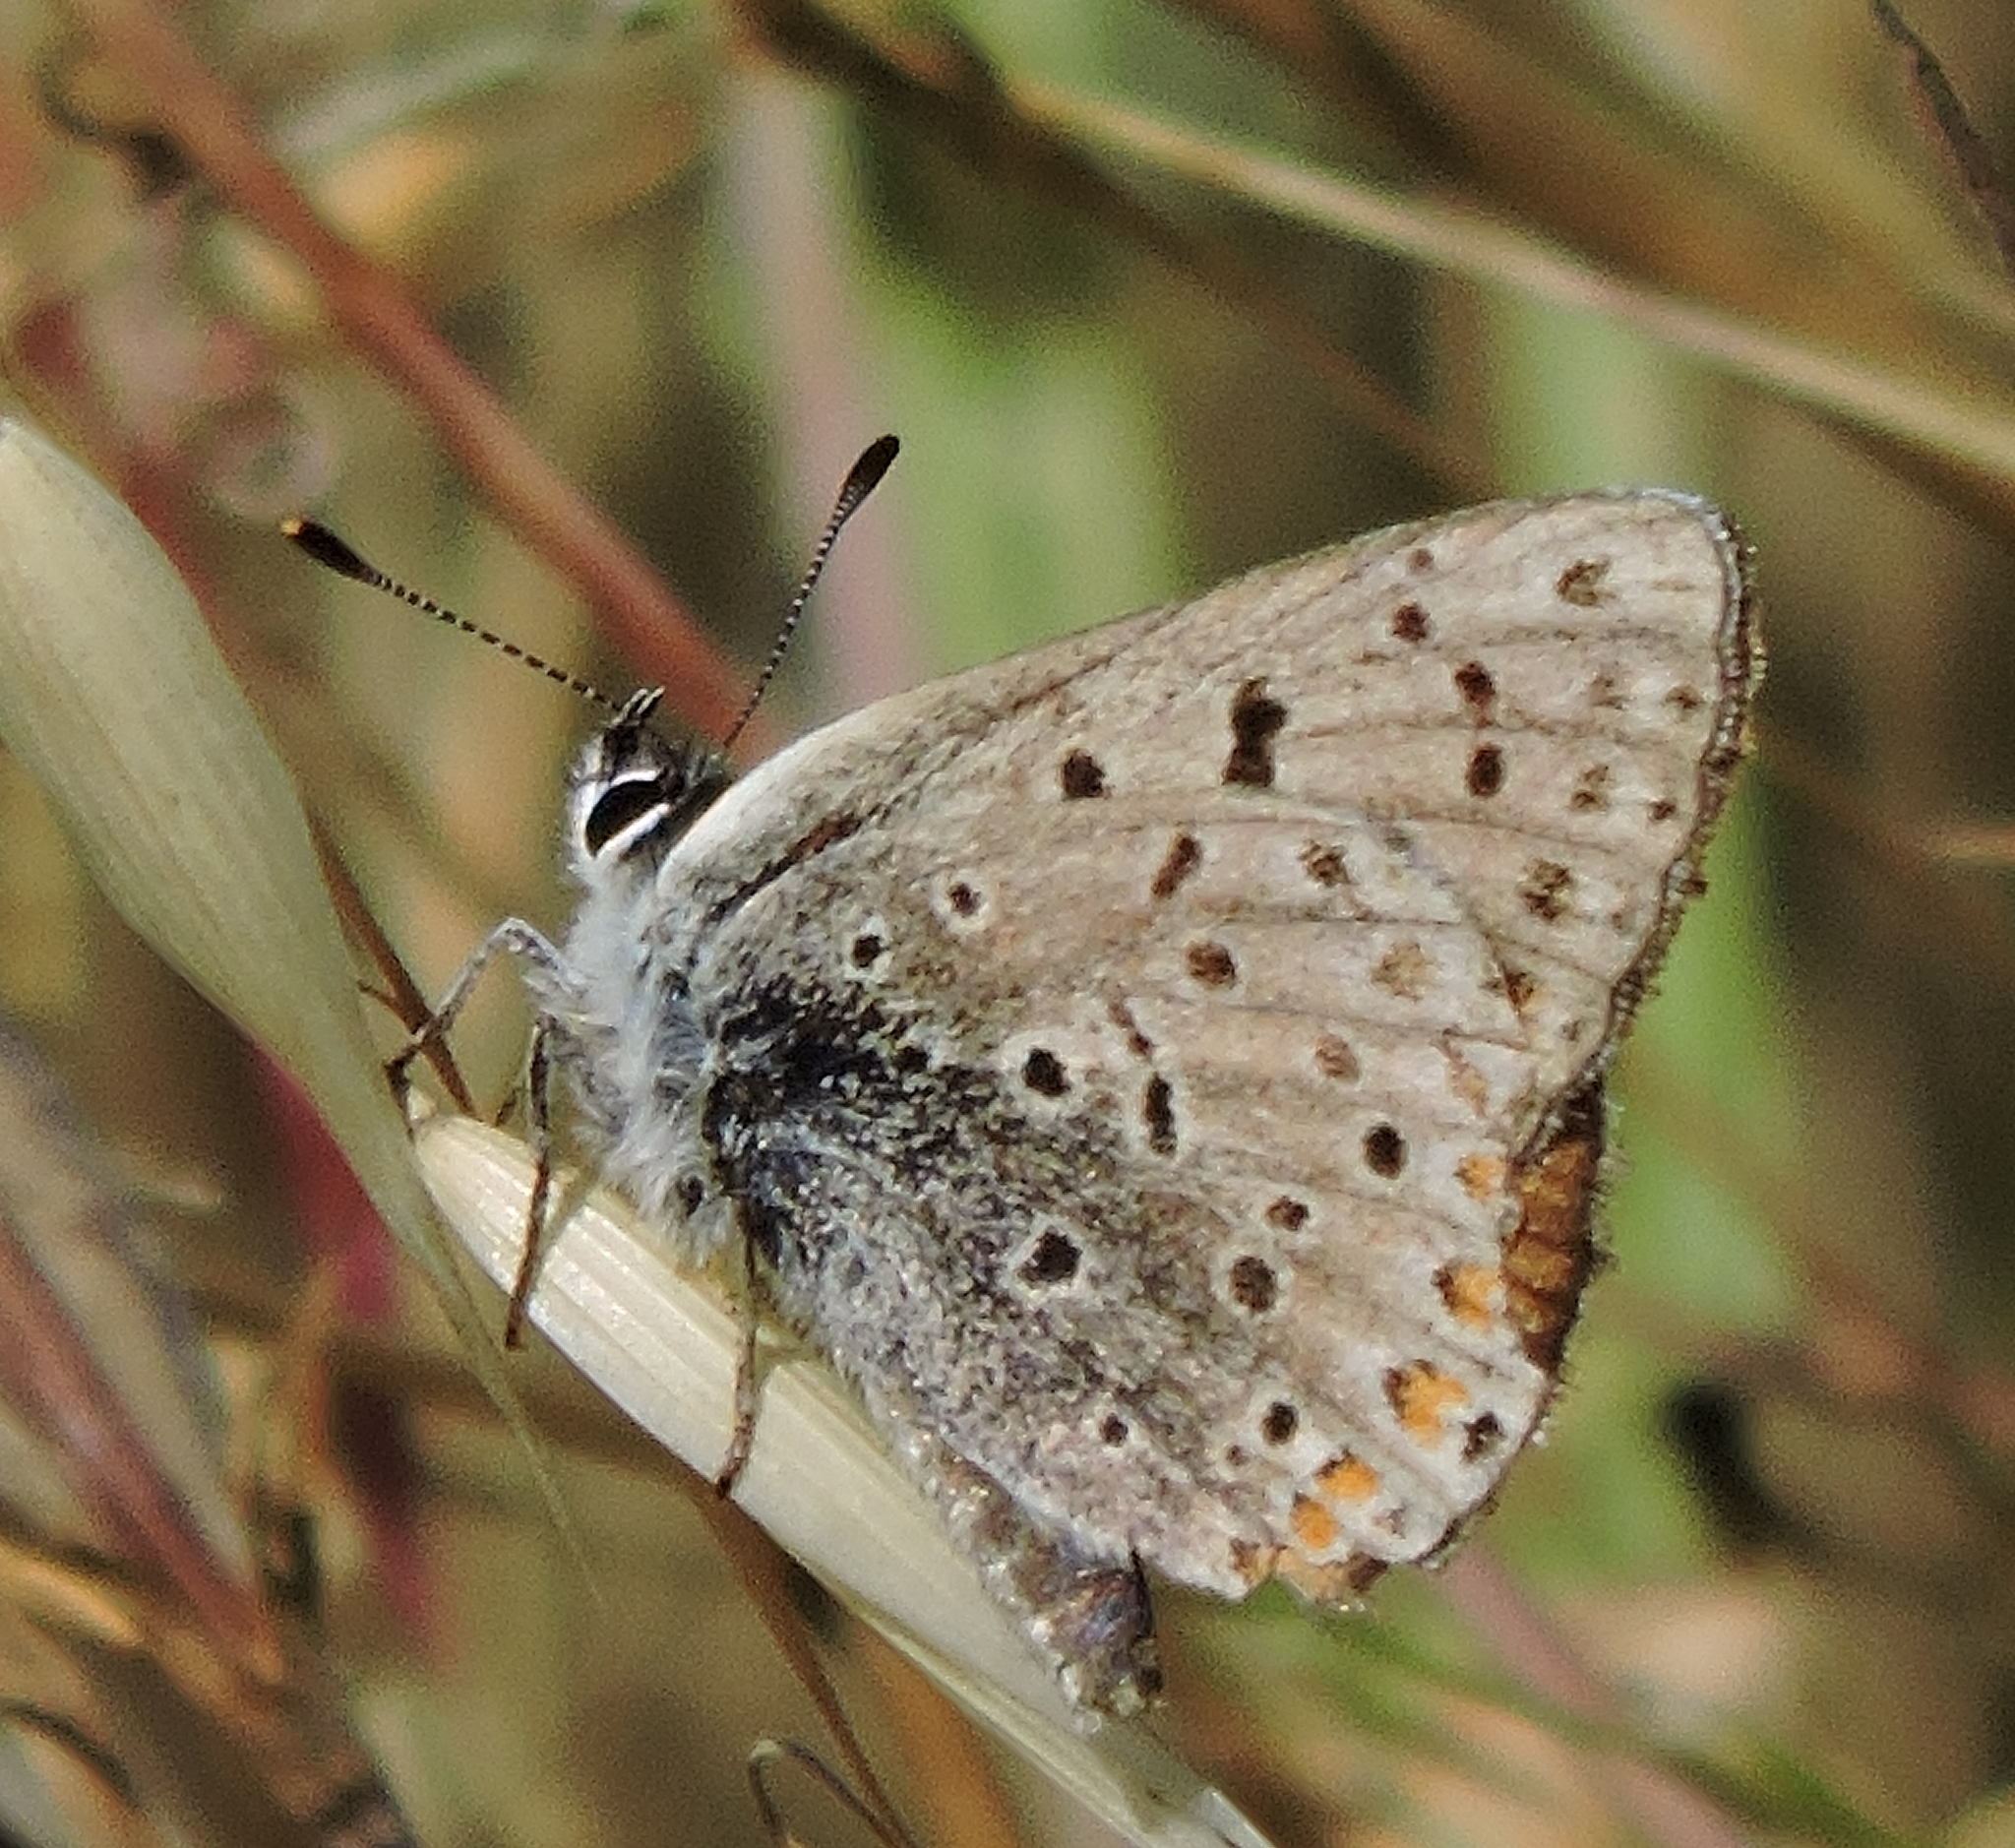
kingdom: Animalia
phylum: Arthropoda
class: Insecta
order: Lepidoptera
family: Lycaenidae
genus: Tharsalea
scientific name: Tharsalea gorgon
